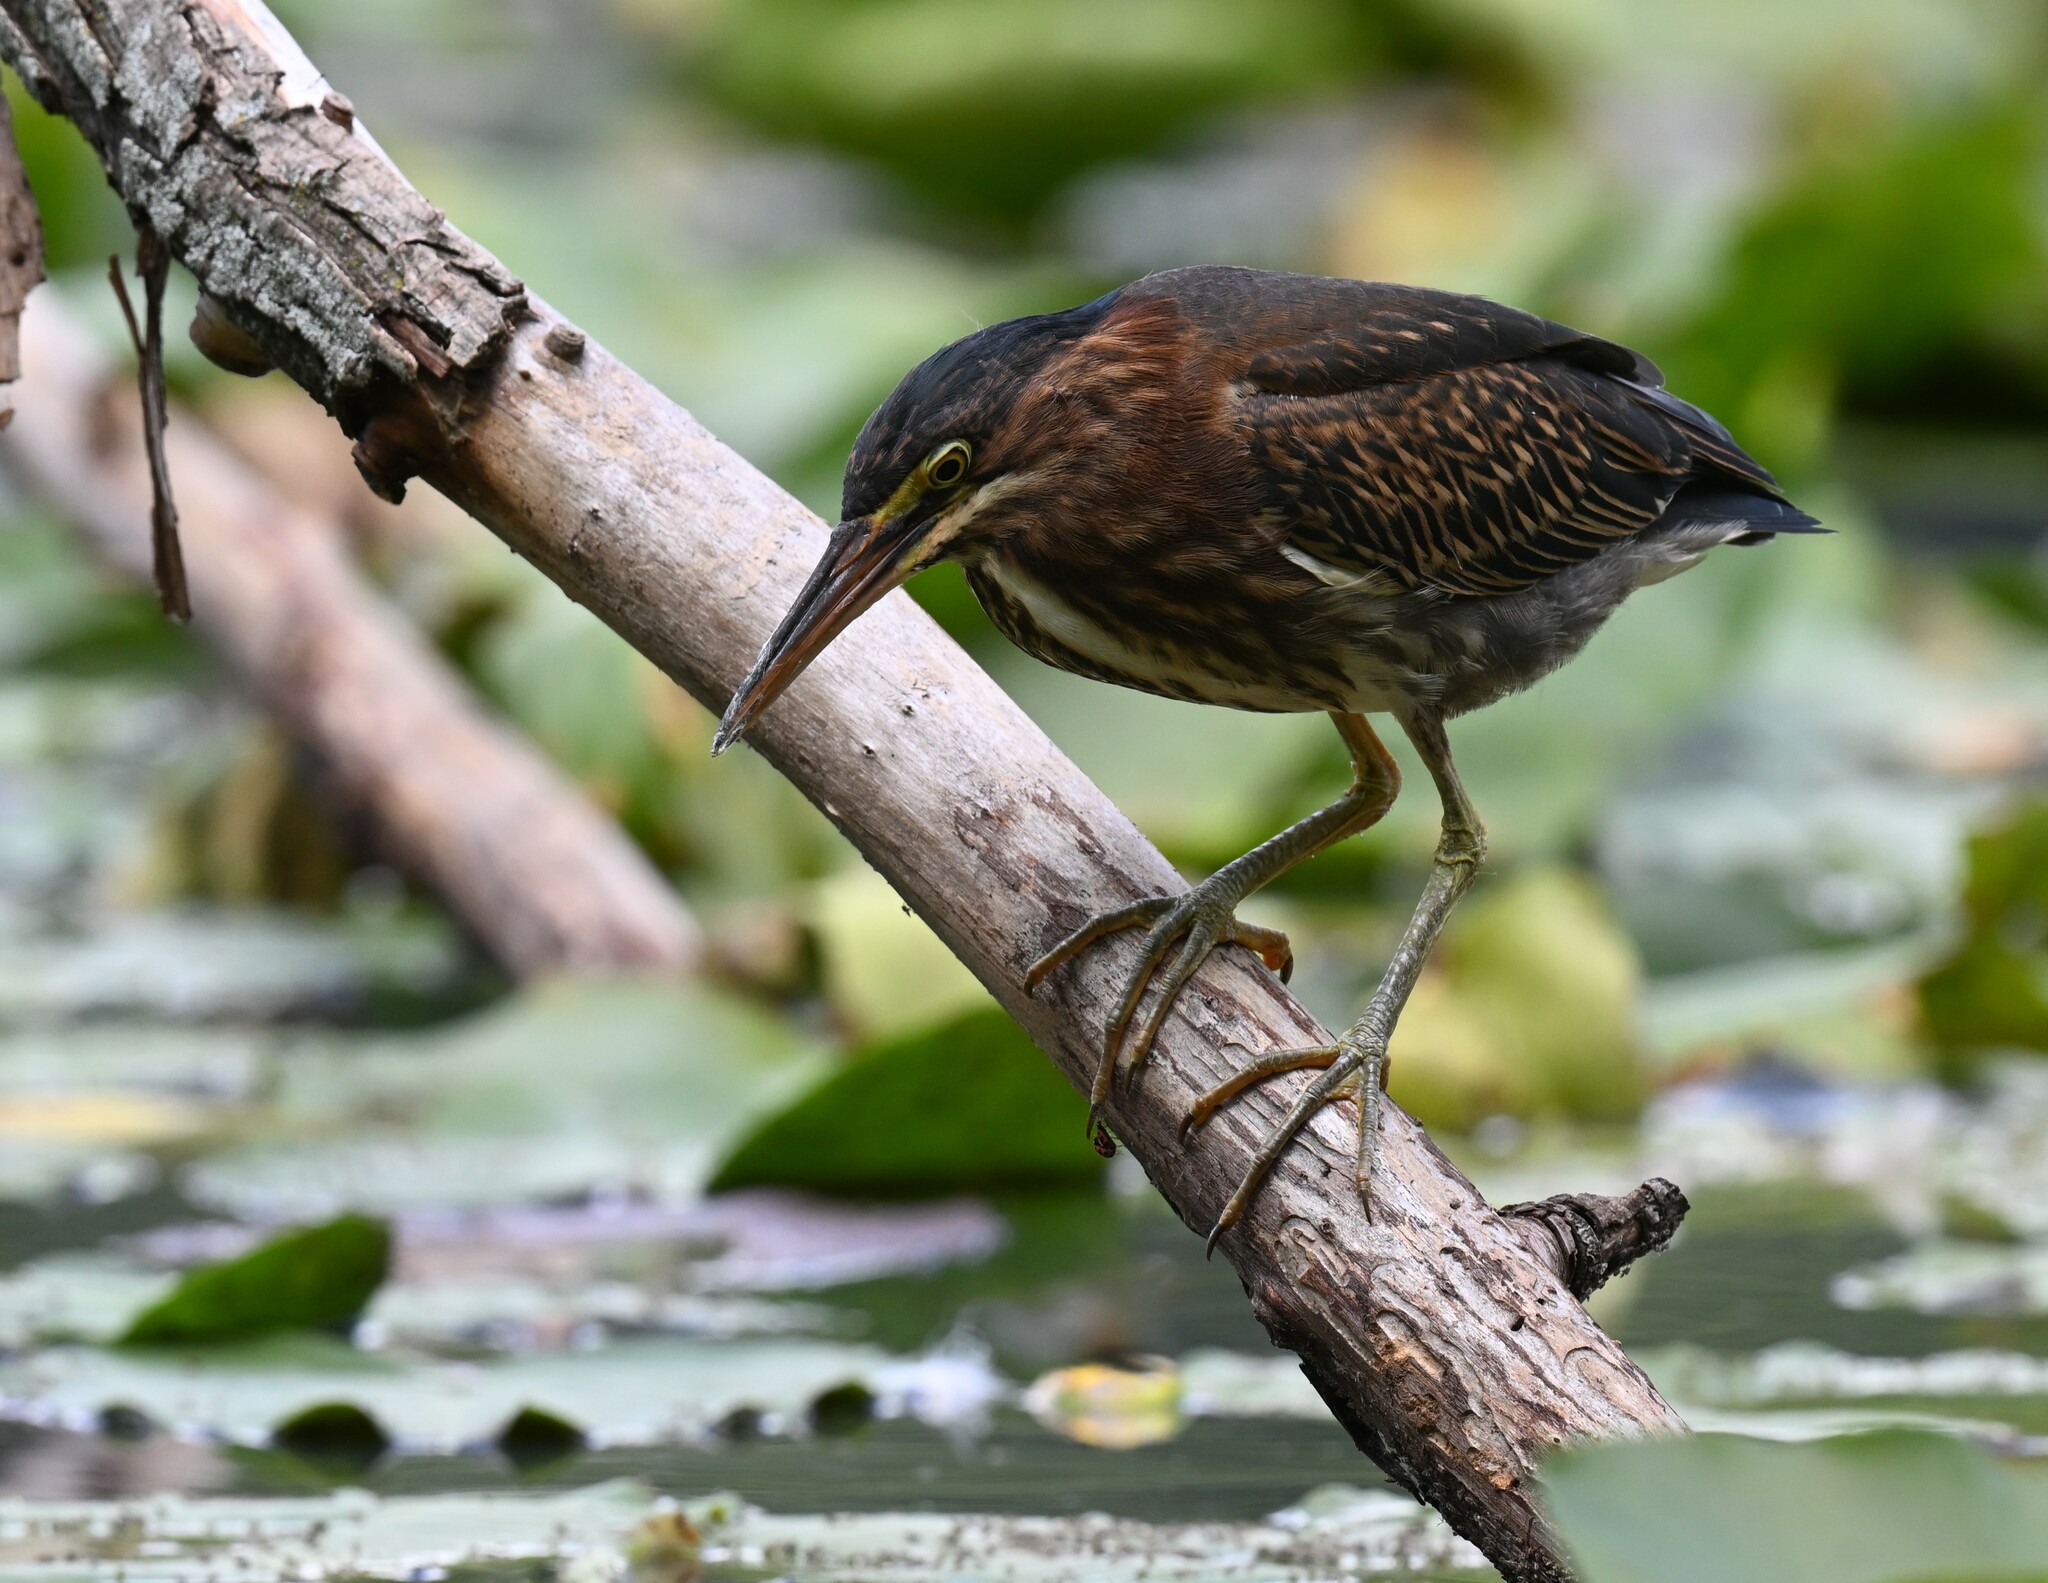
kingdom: Animalia
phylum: Chordata
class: Aves
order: Pelecaniformes
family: Ardeidae
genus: Butorides
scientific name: Butorides virescens
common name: Green heron
